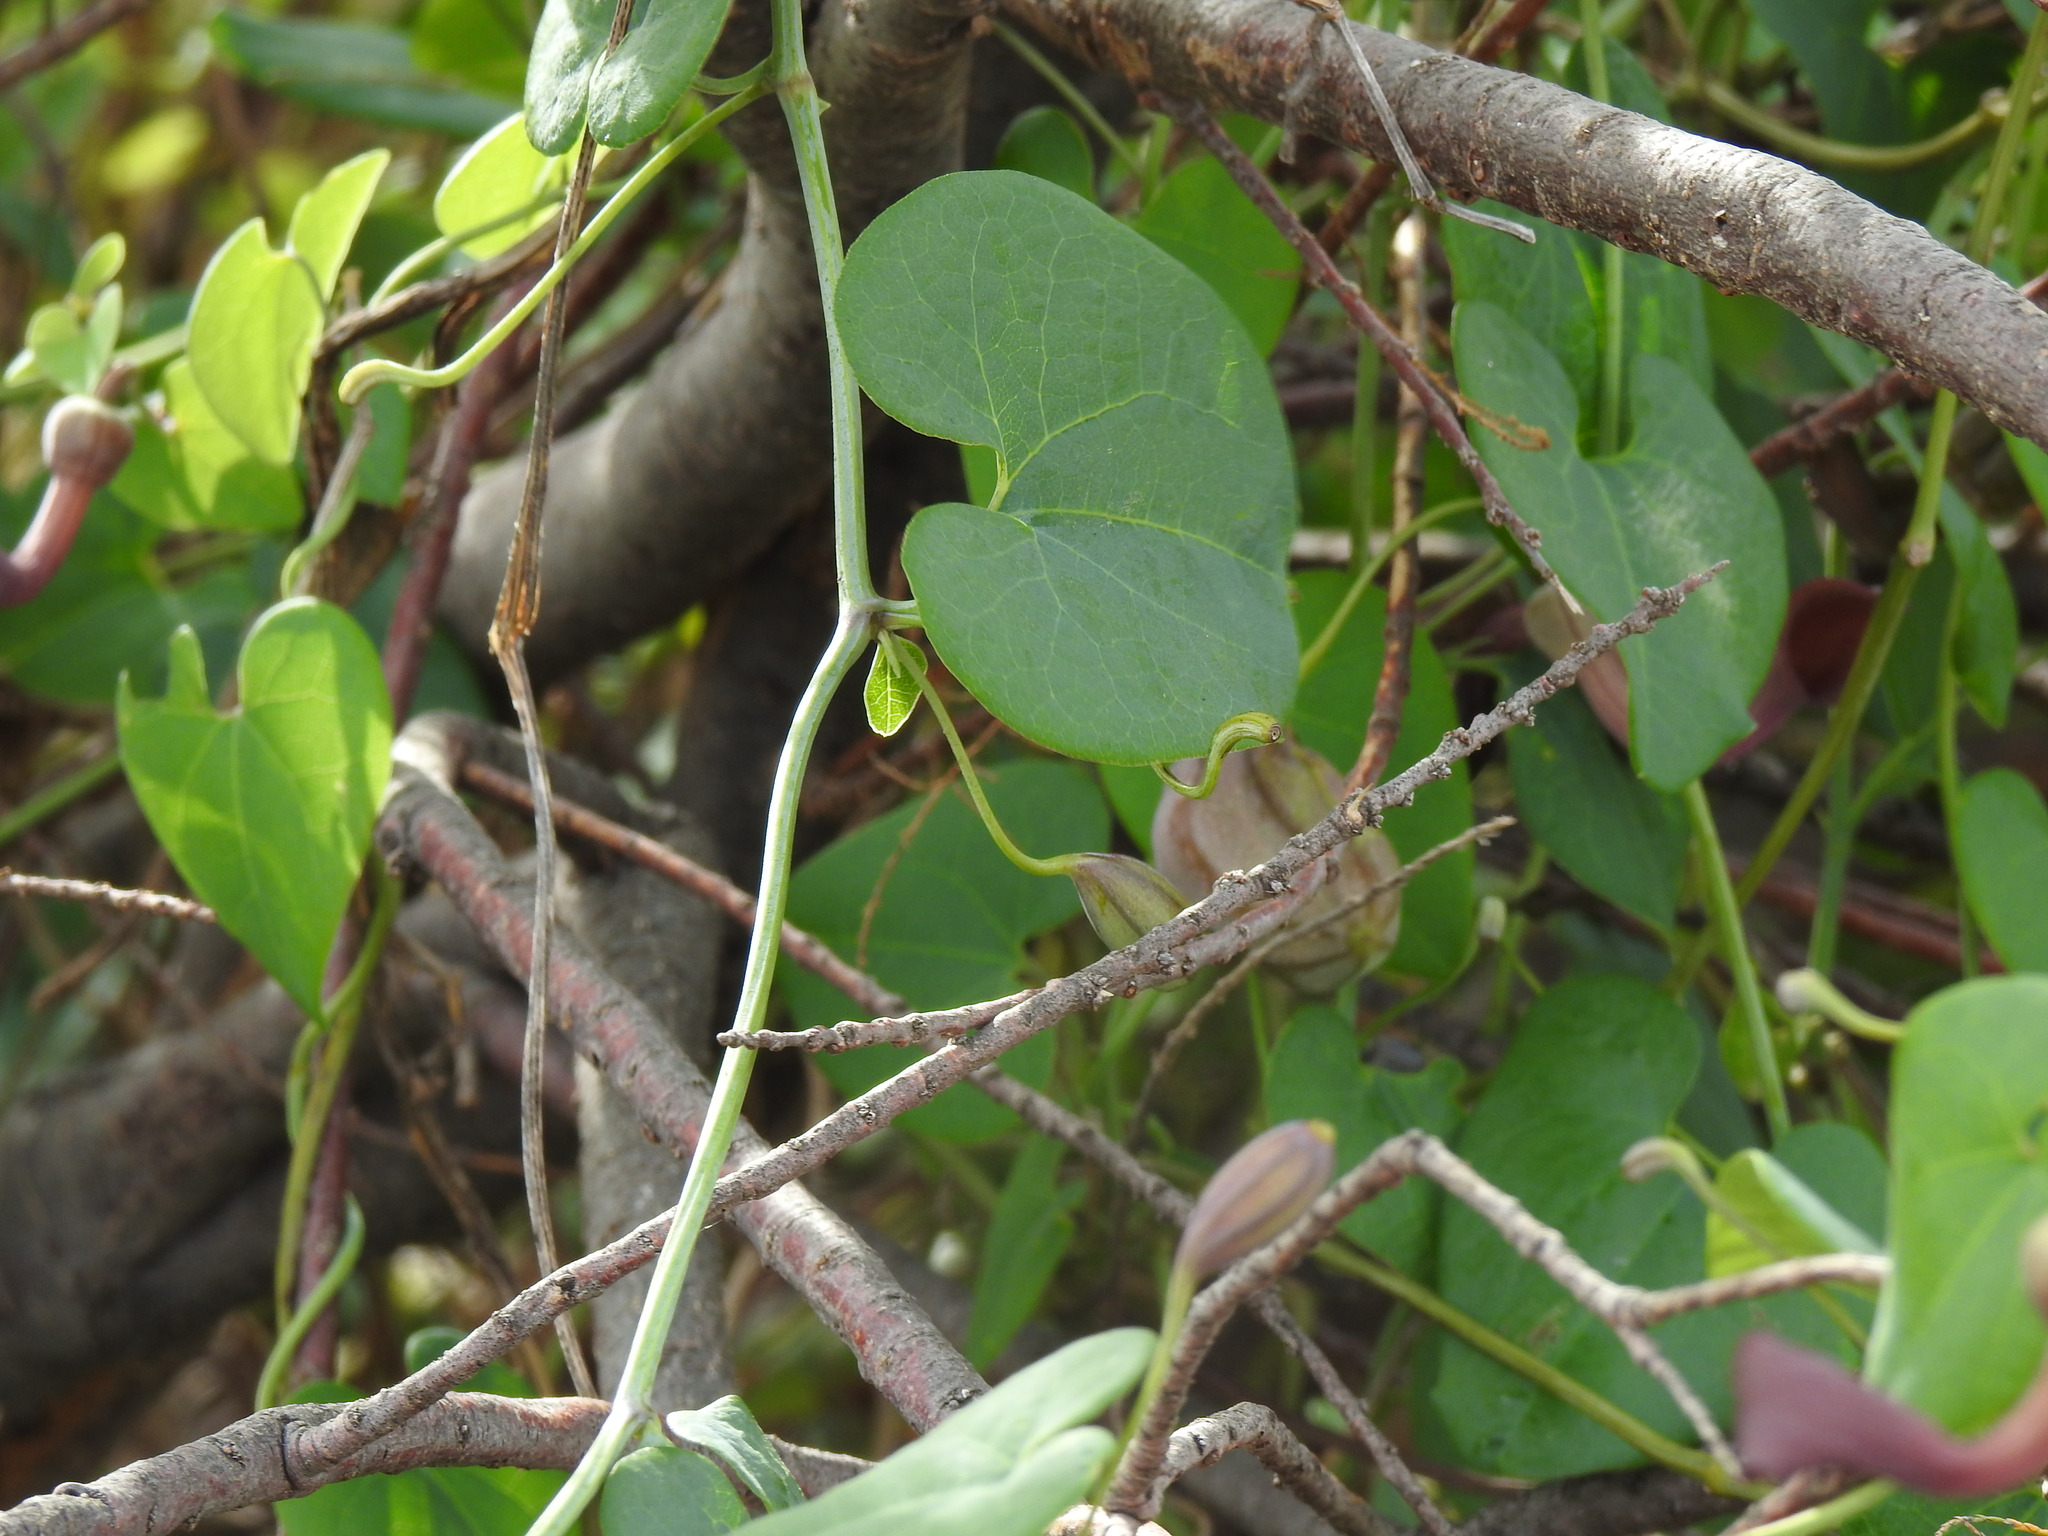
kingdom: Plantae
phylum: Tracheophyta
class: Magnoliopsida
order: Piperales
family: Aristolochiaceae
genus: Aristolochia
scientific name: Aristolochia baetica
